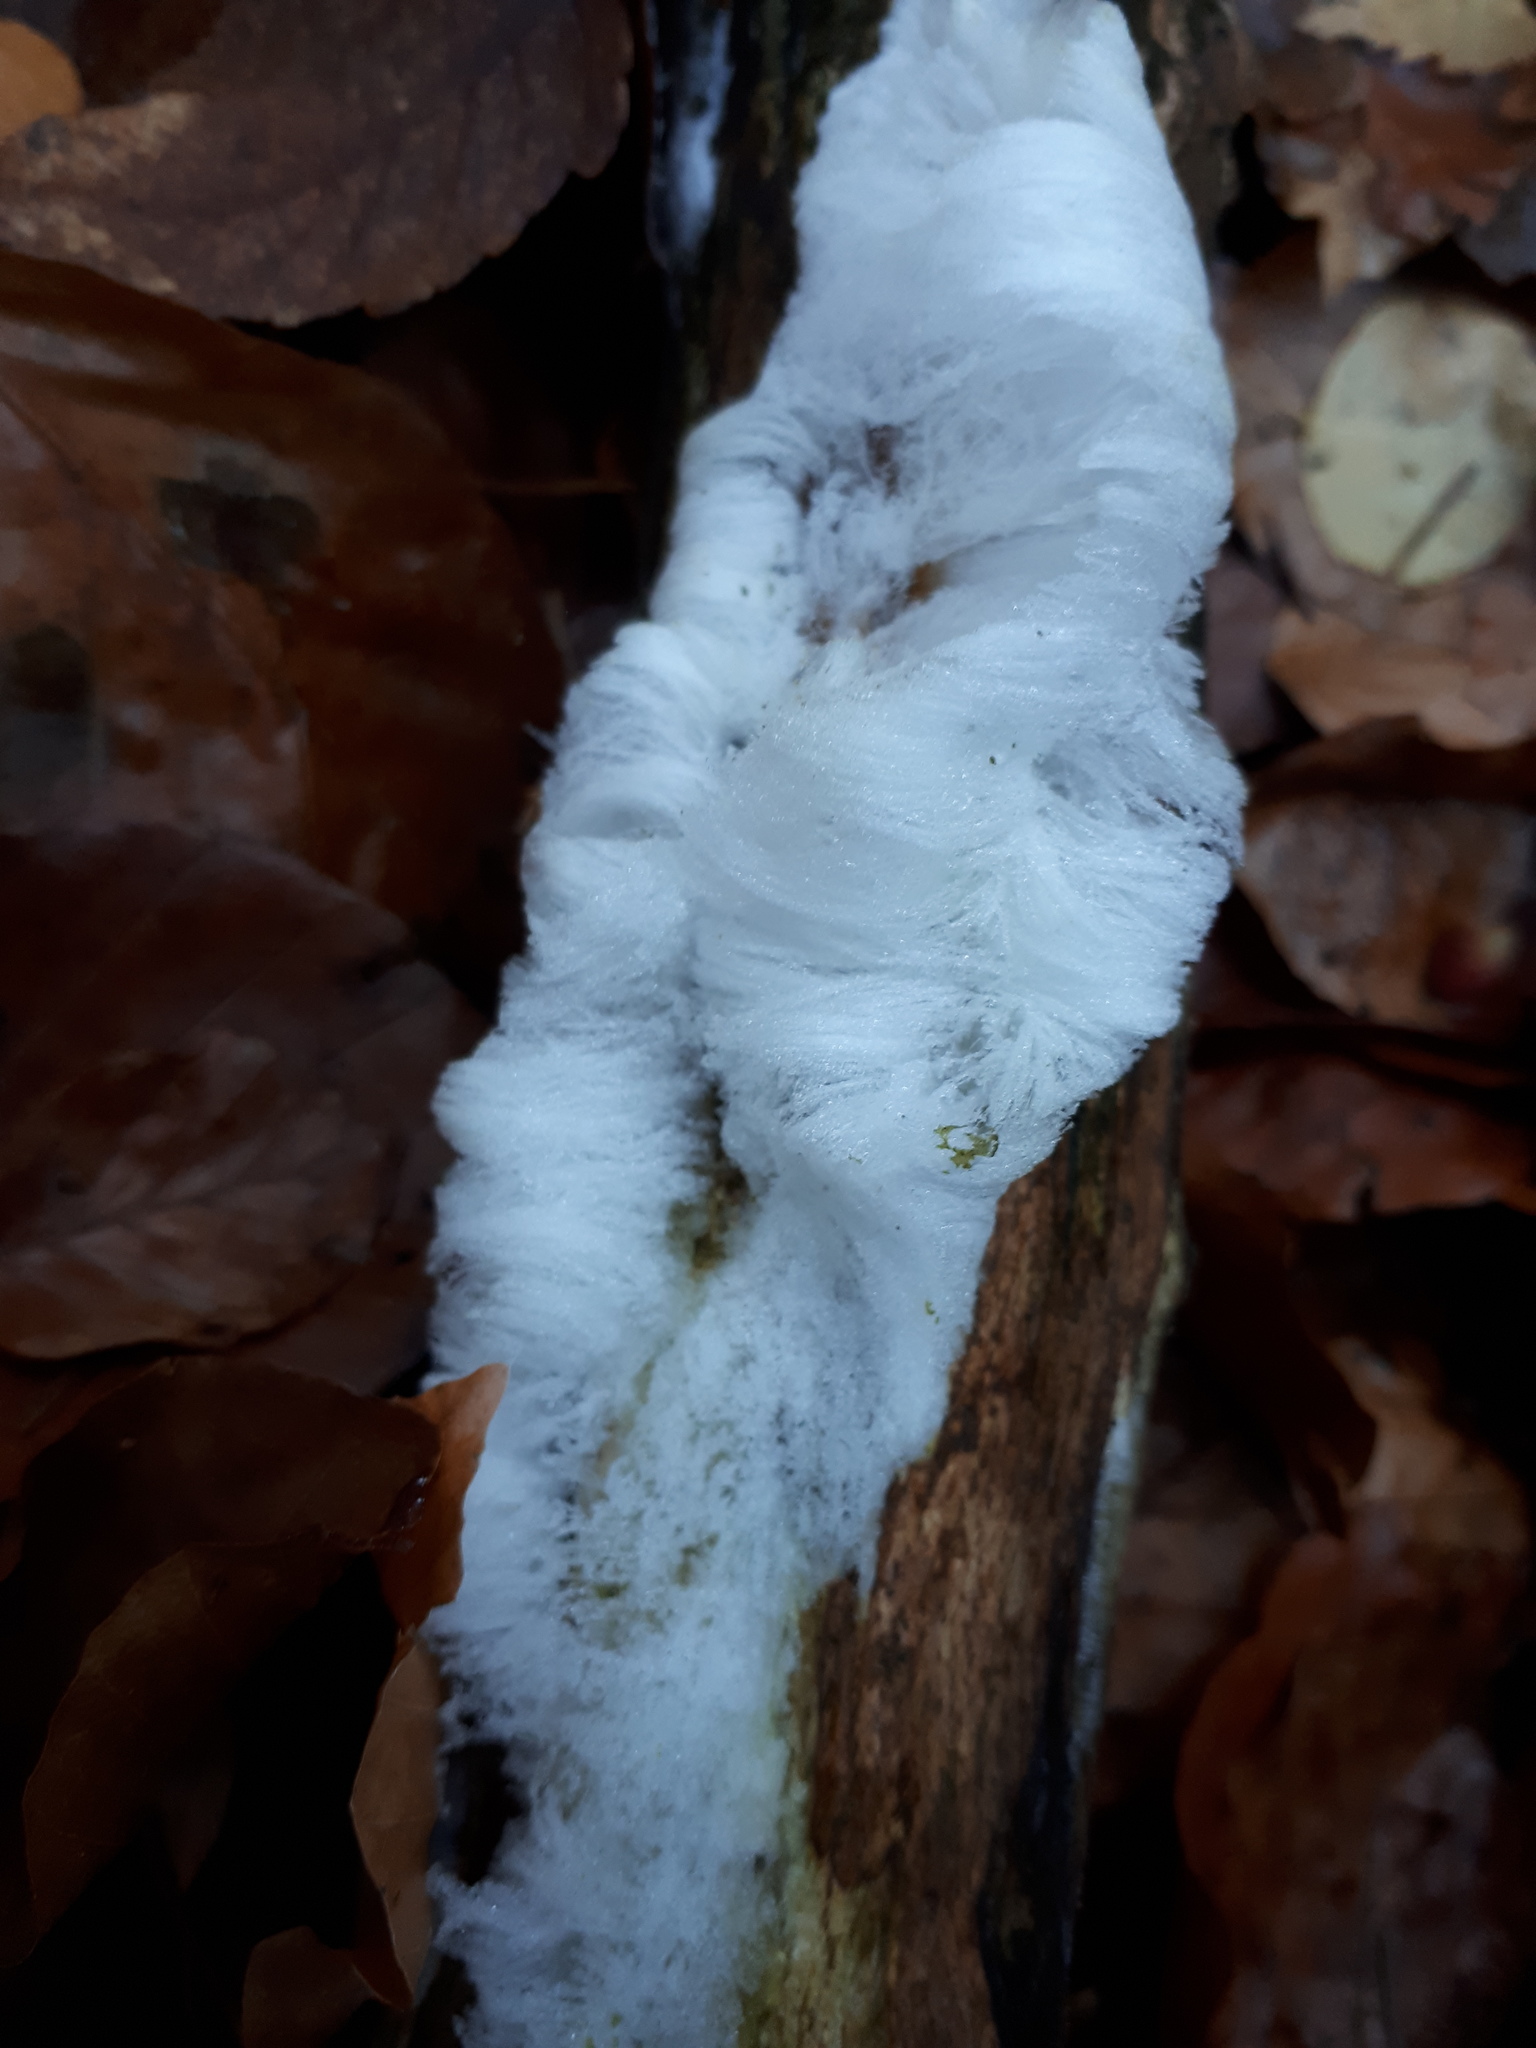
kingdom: Fungi
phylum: Basidiomycota
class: Agaricomycetes
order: Auriculariales
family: Auriculariaceae
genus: Exidiopsis
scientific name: Exidiopsis effusa
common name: Hair ice crust
